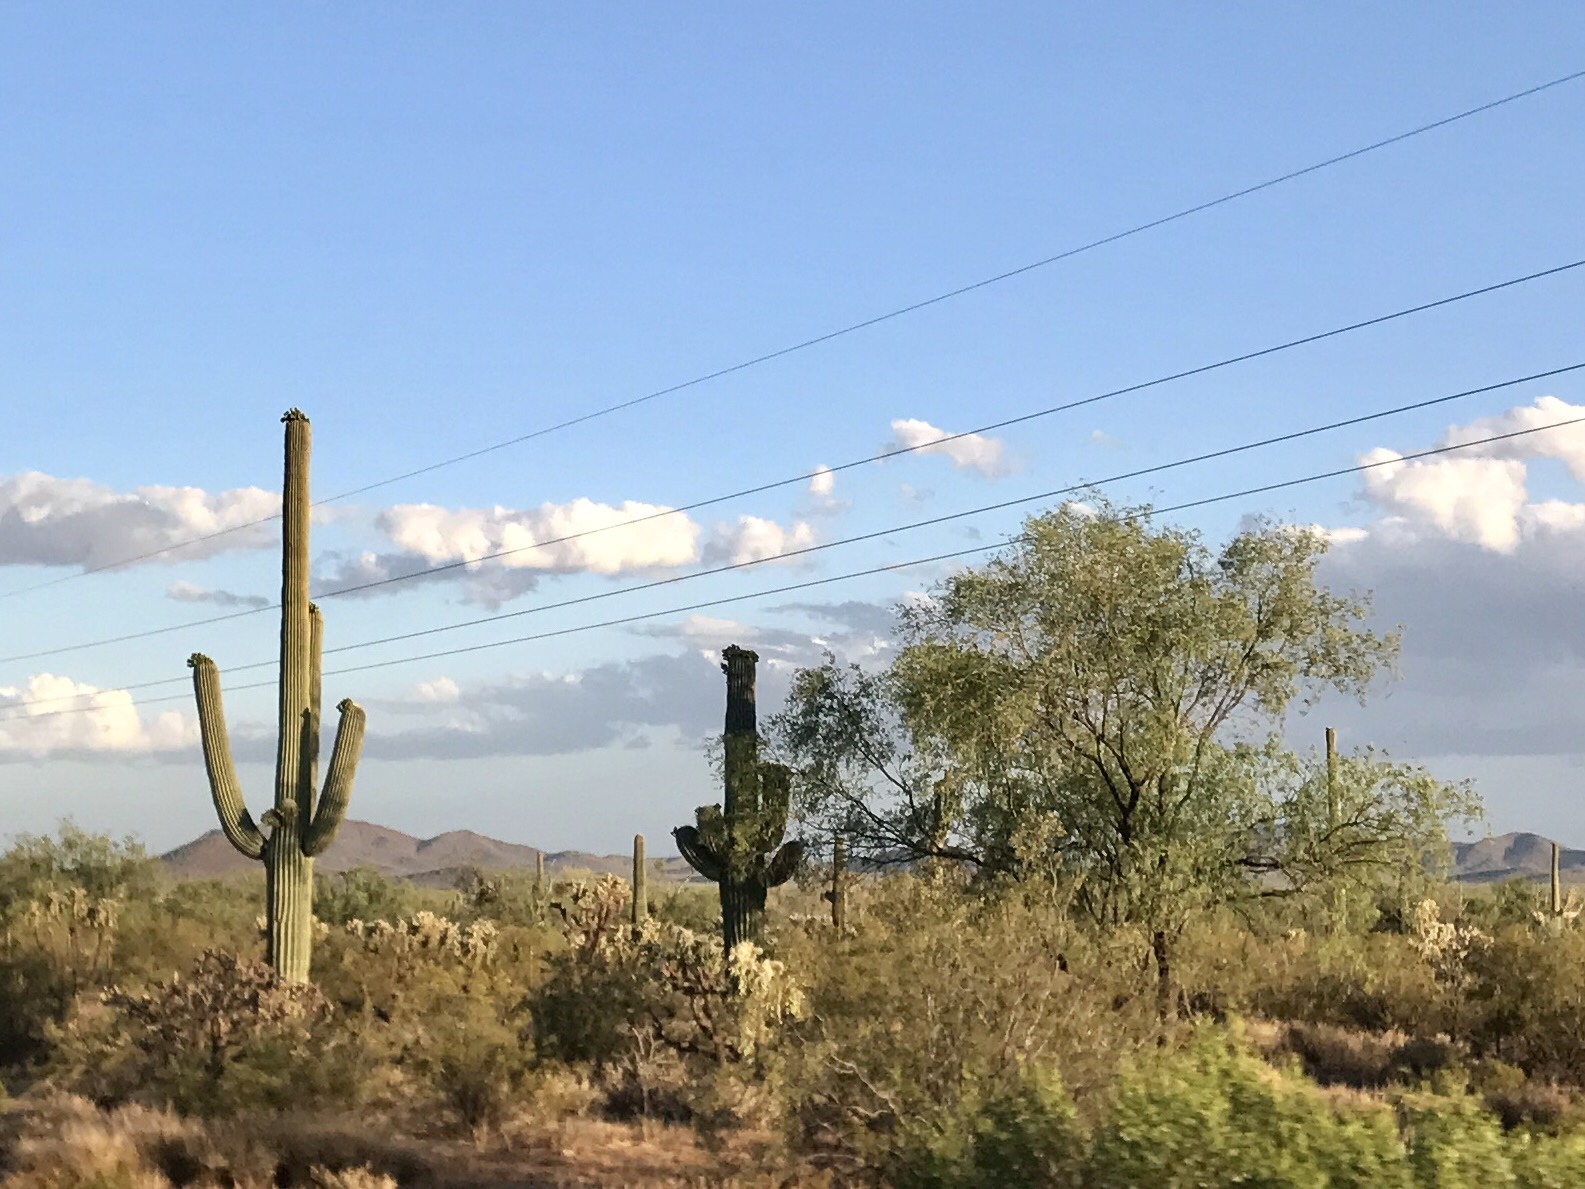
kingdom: Plantae
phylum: Tracheophyta
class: Magnoliopsida
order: Caryophyllales
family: Cactaceae
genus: Carnegiea
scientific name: Carnegiea gigantea
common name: Saguaro
